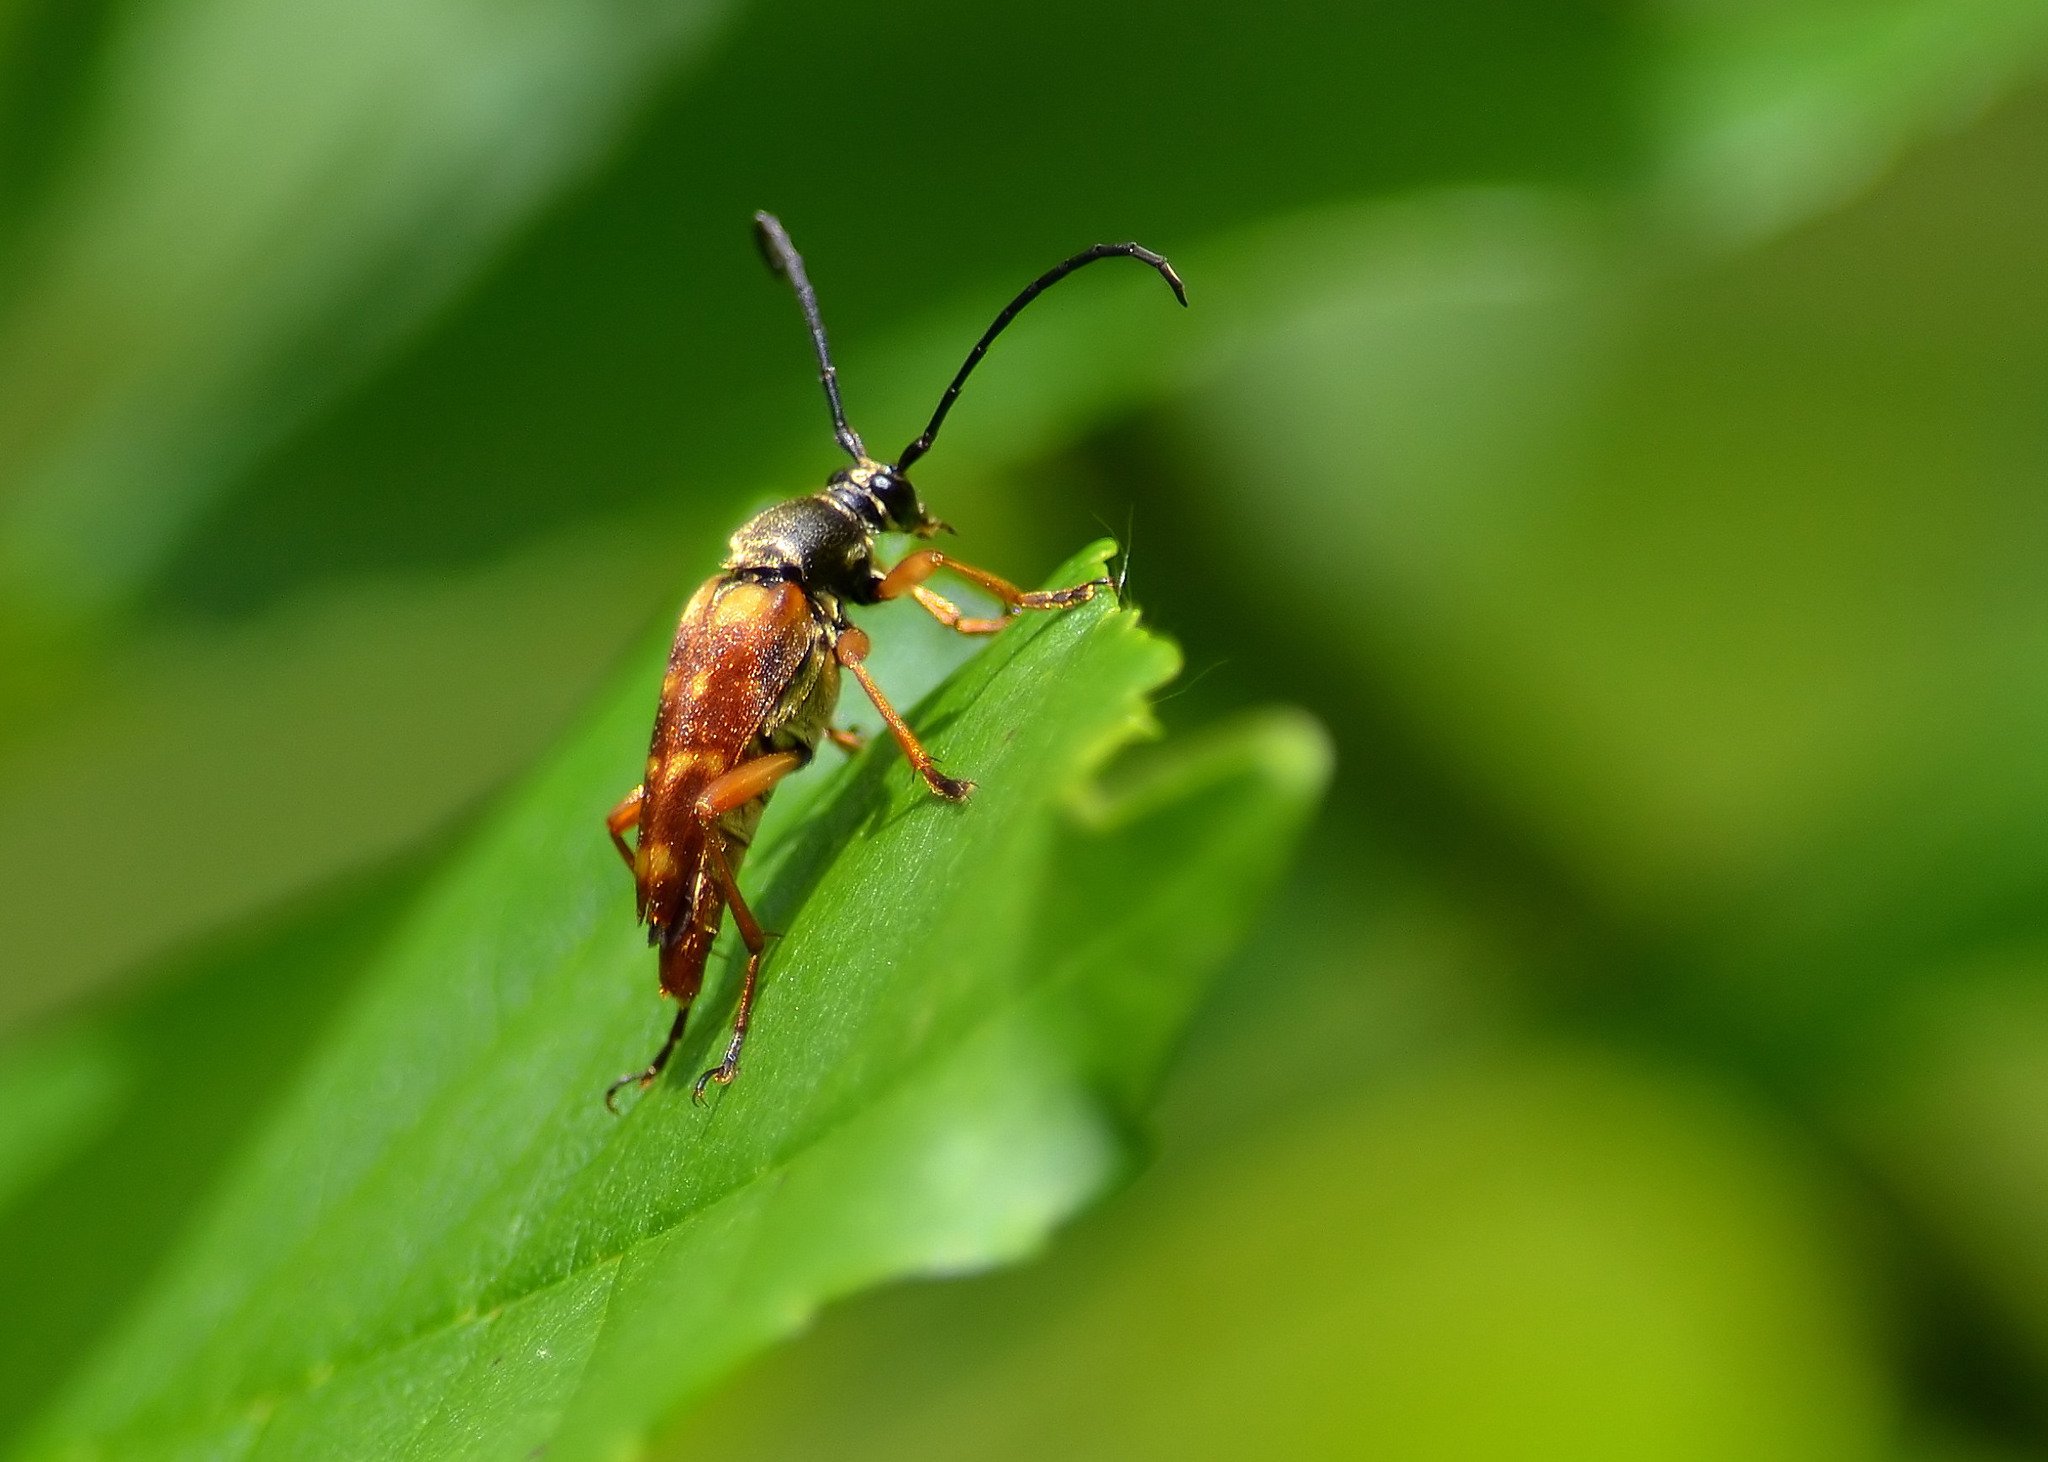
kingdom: Animalia
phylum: Arthropoda
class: Insecta
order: Coleoptera
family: Cerambycidae
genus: Typocerus
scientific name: Typocerus velutinus
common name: Banded longhorn beetle
